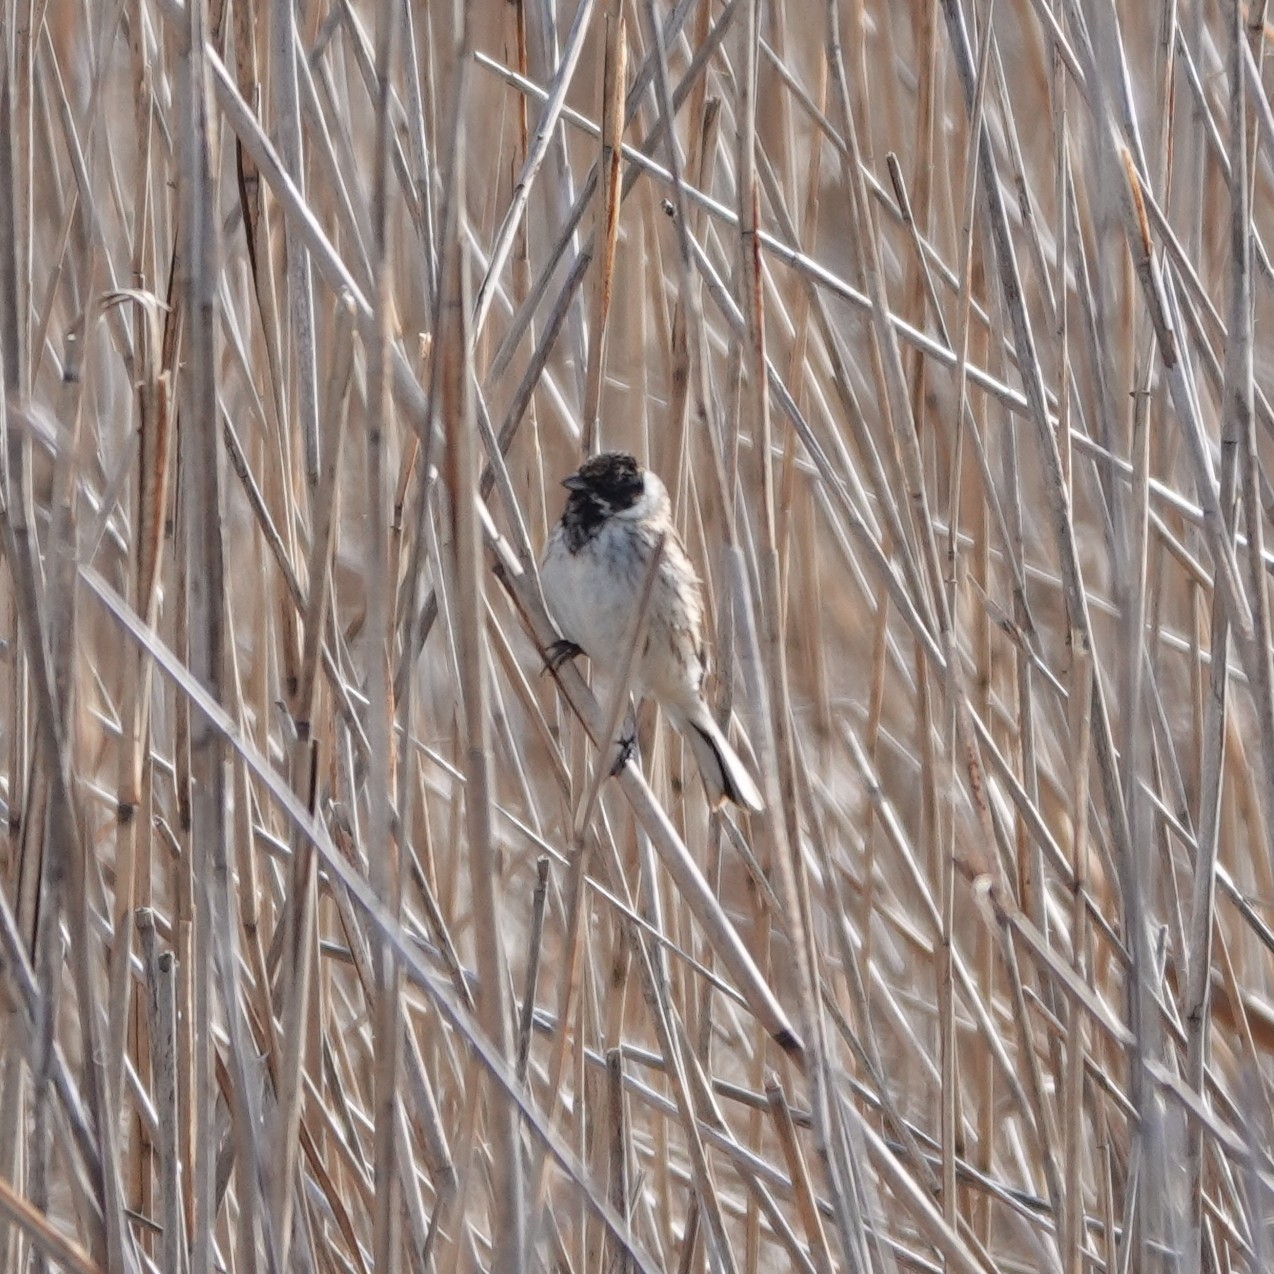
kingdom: Animalia
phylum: Chordata
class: Aves
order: Passeriformes
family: Emberizidae
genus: Emberiza
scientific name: Emberiza schoeniclus
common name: Reed bunting
